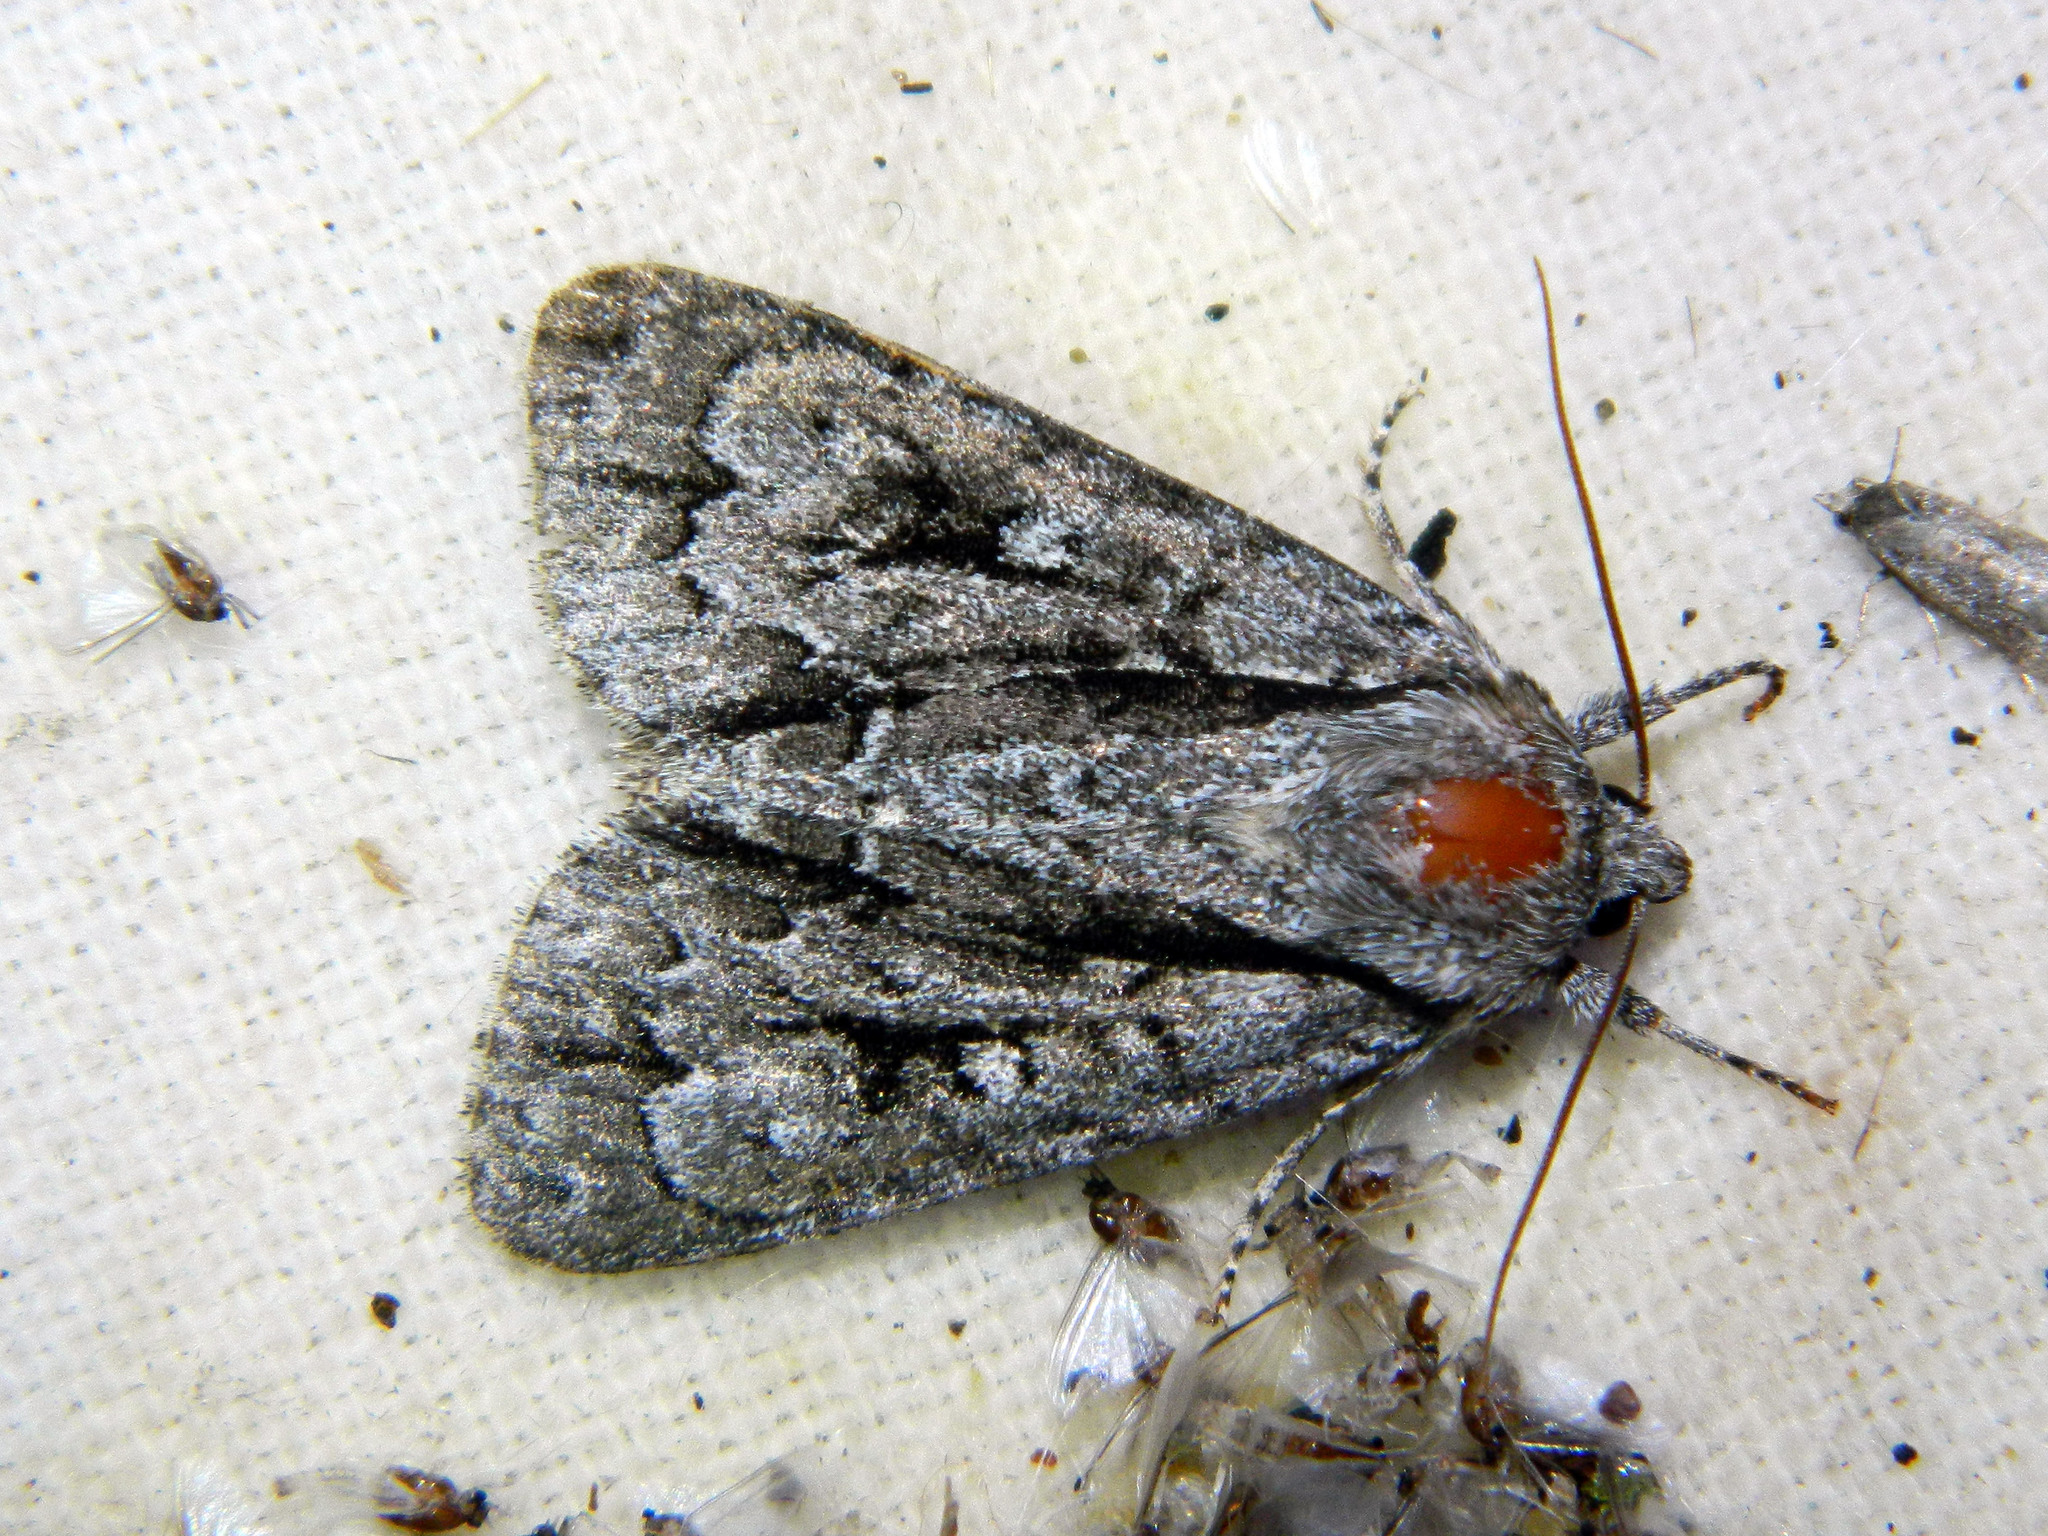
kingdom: Animalia
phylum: Arthropoda
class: Insecta
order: Lepidoptera
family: Noctuidae
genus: Acronicta
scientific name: Acronicta hasta
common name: Cherry dagger
